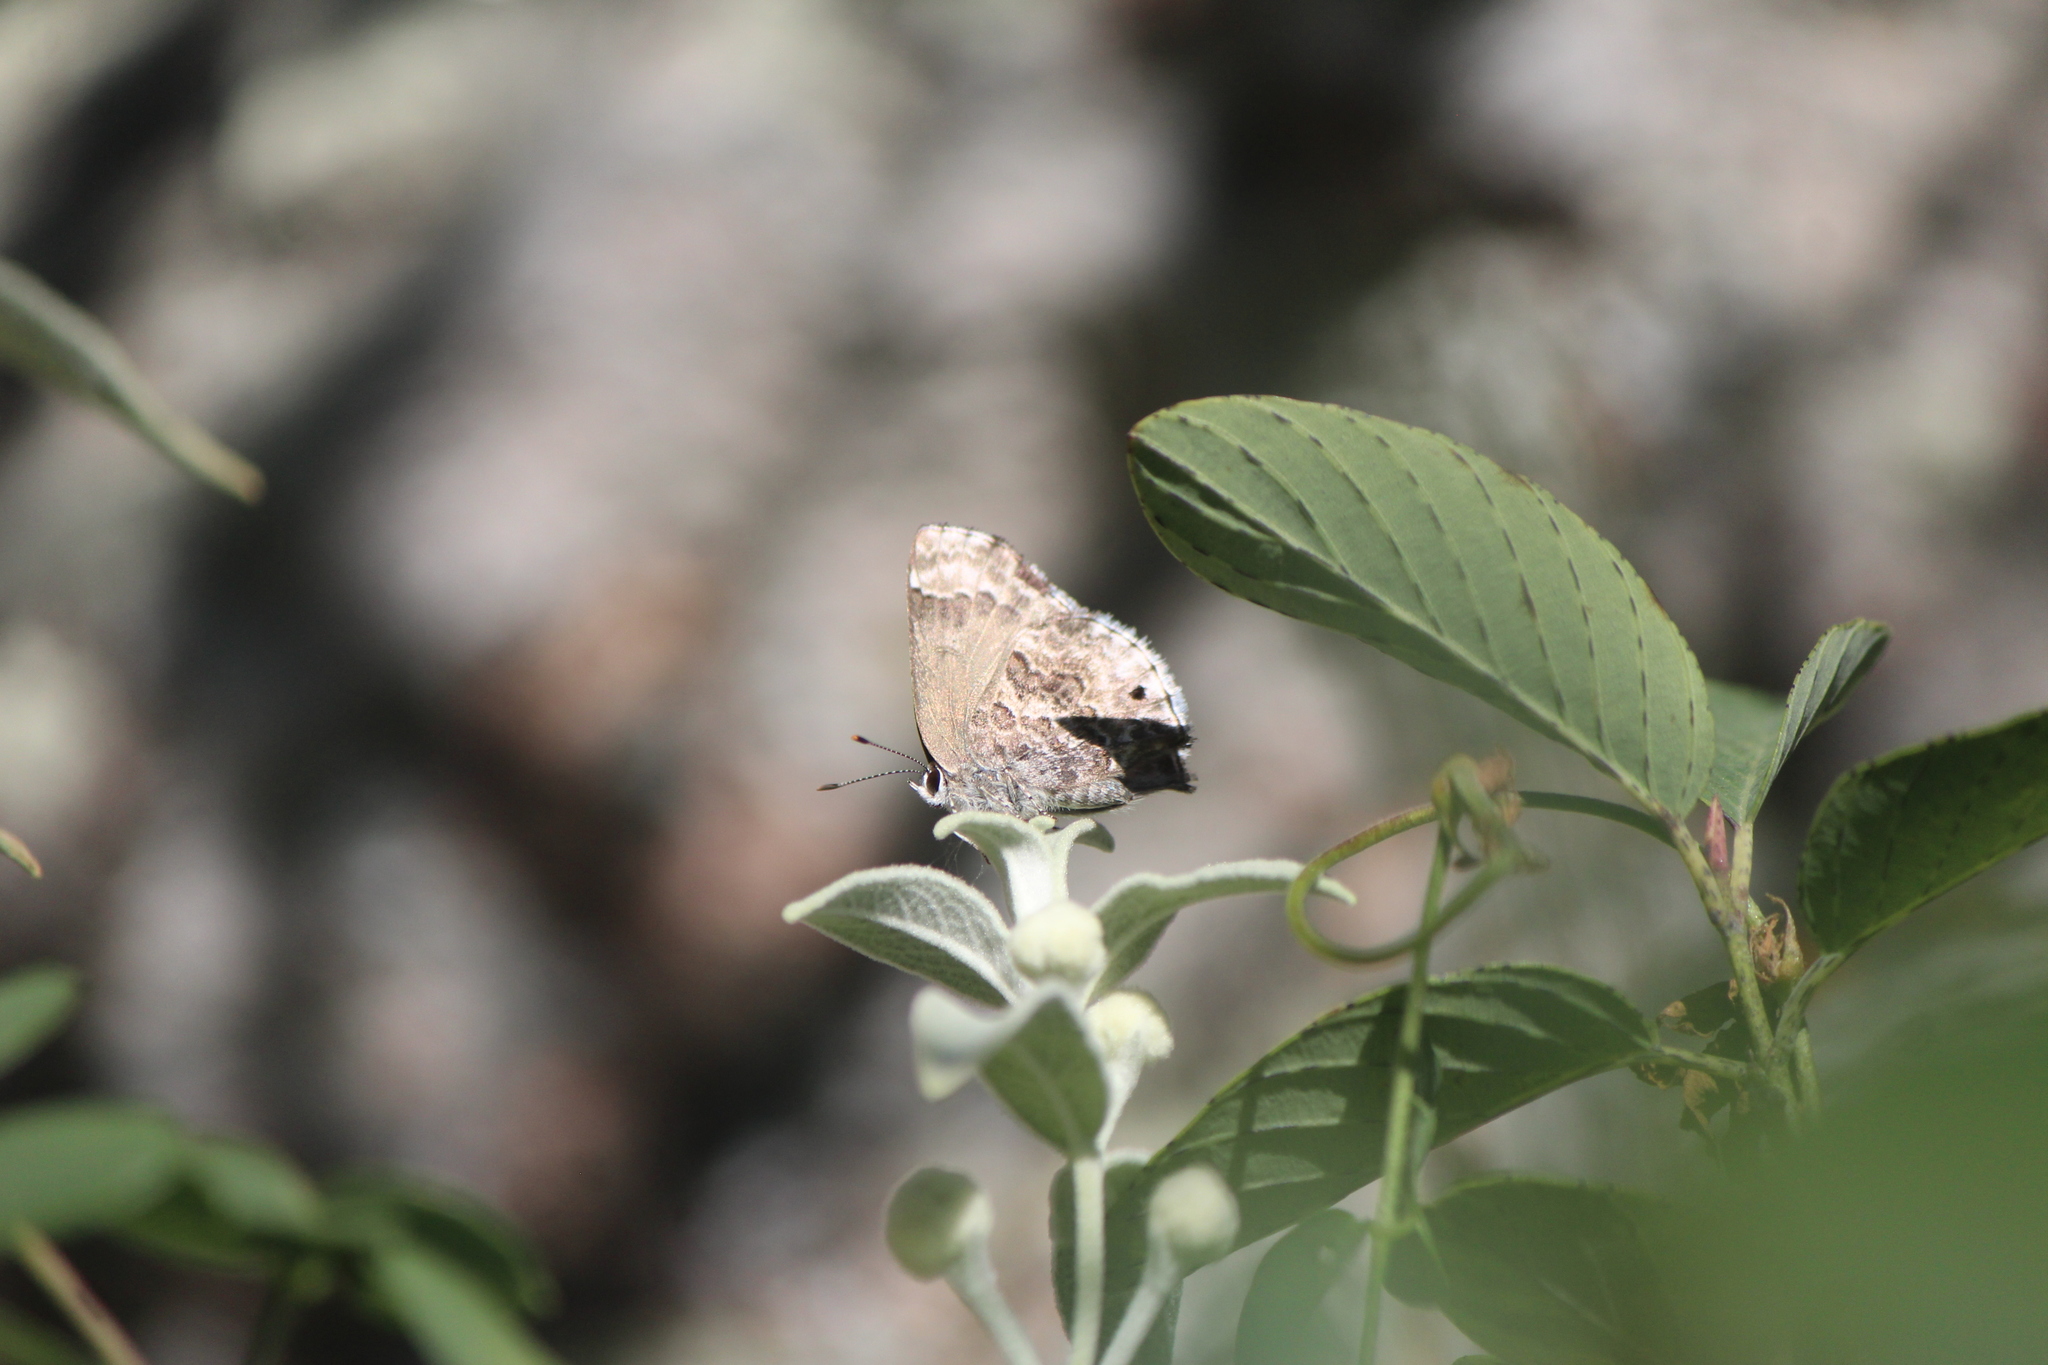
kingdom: Animalia
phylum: Arthropoda
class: Insecta
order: Lepidoptera
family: Lycaenidae
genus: Thecla
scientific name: Thecla cestri
